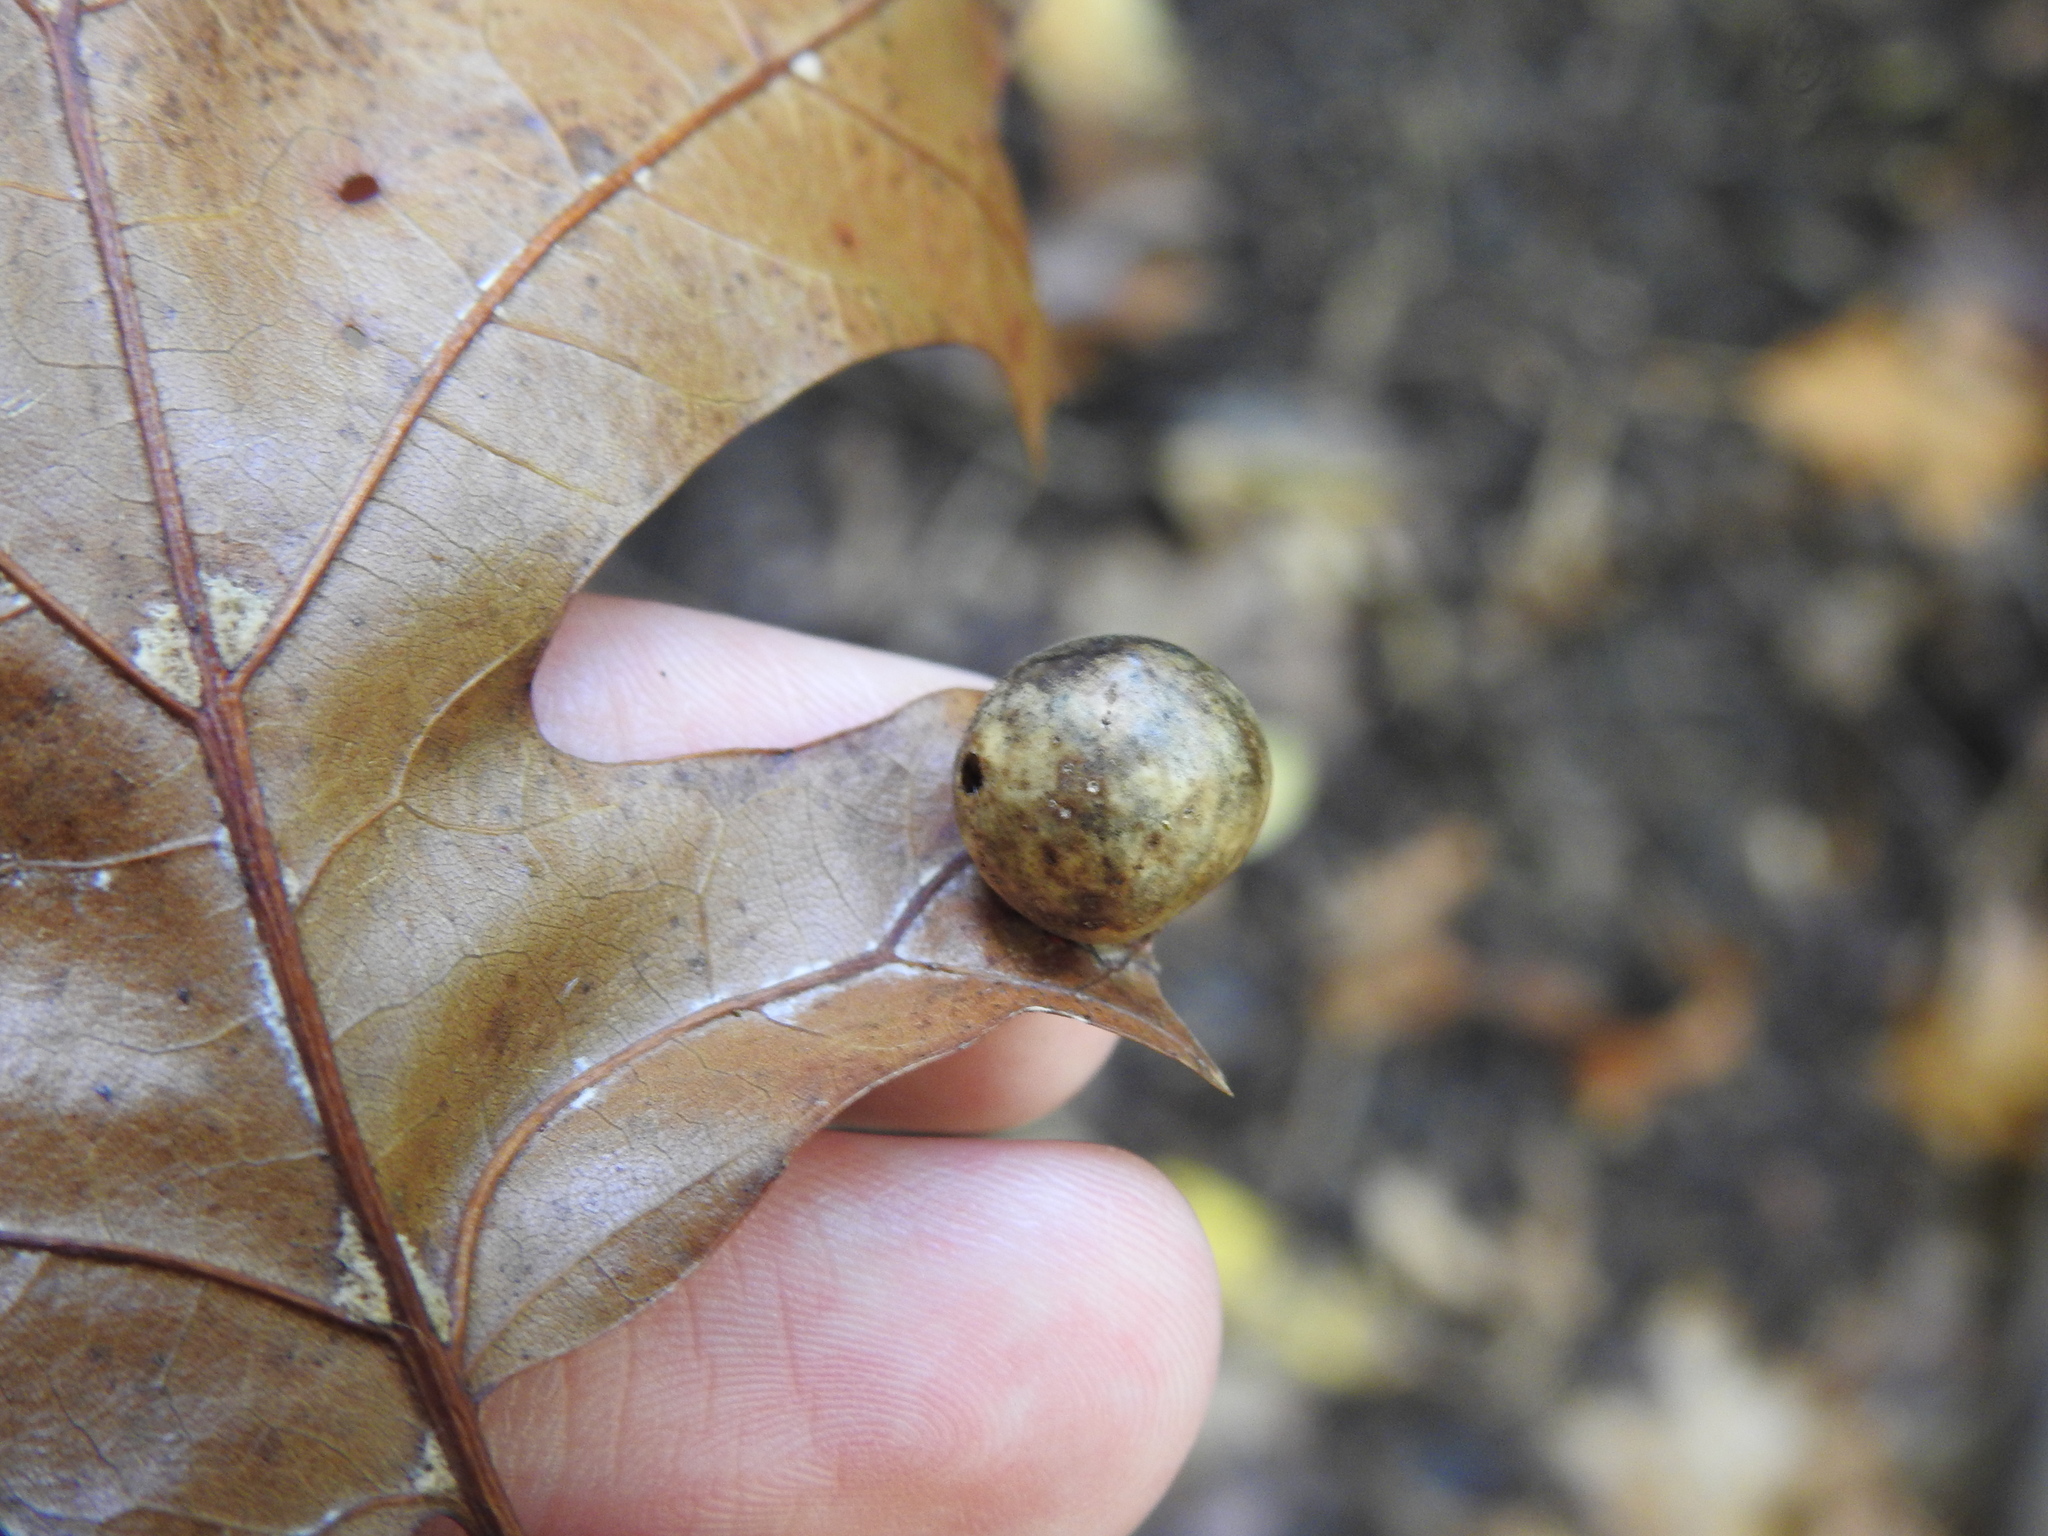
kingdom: Animalia
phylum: Arthropoda
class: Insecta
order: Hymenoptera
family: Cynipidae
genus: Amphibolips
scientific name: Amphibolips
